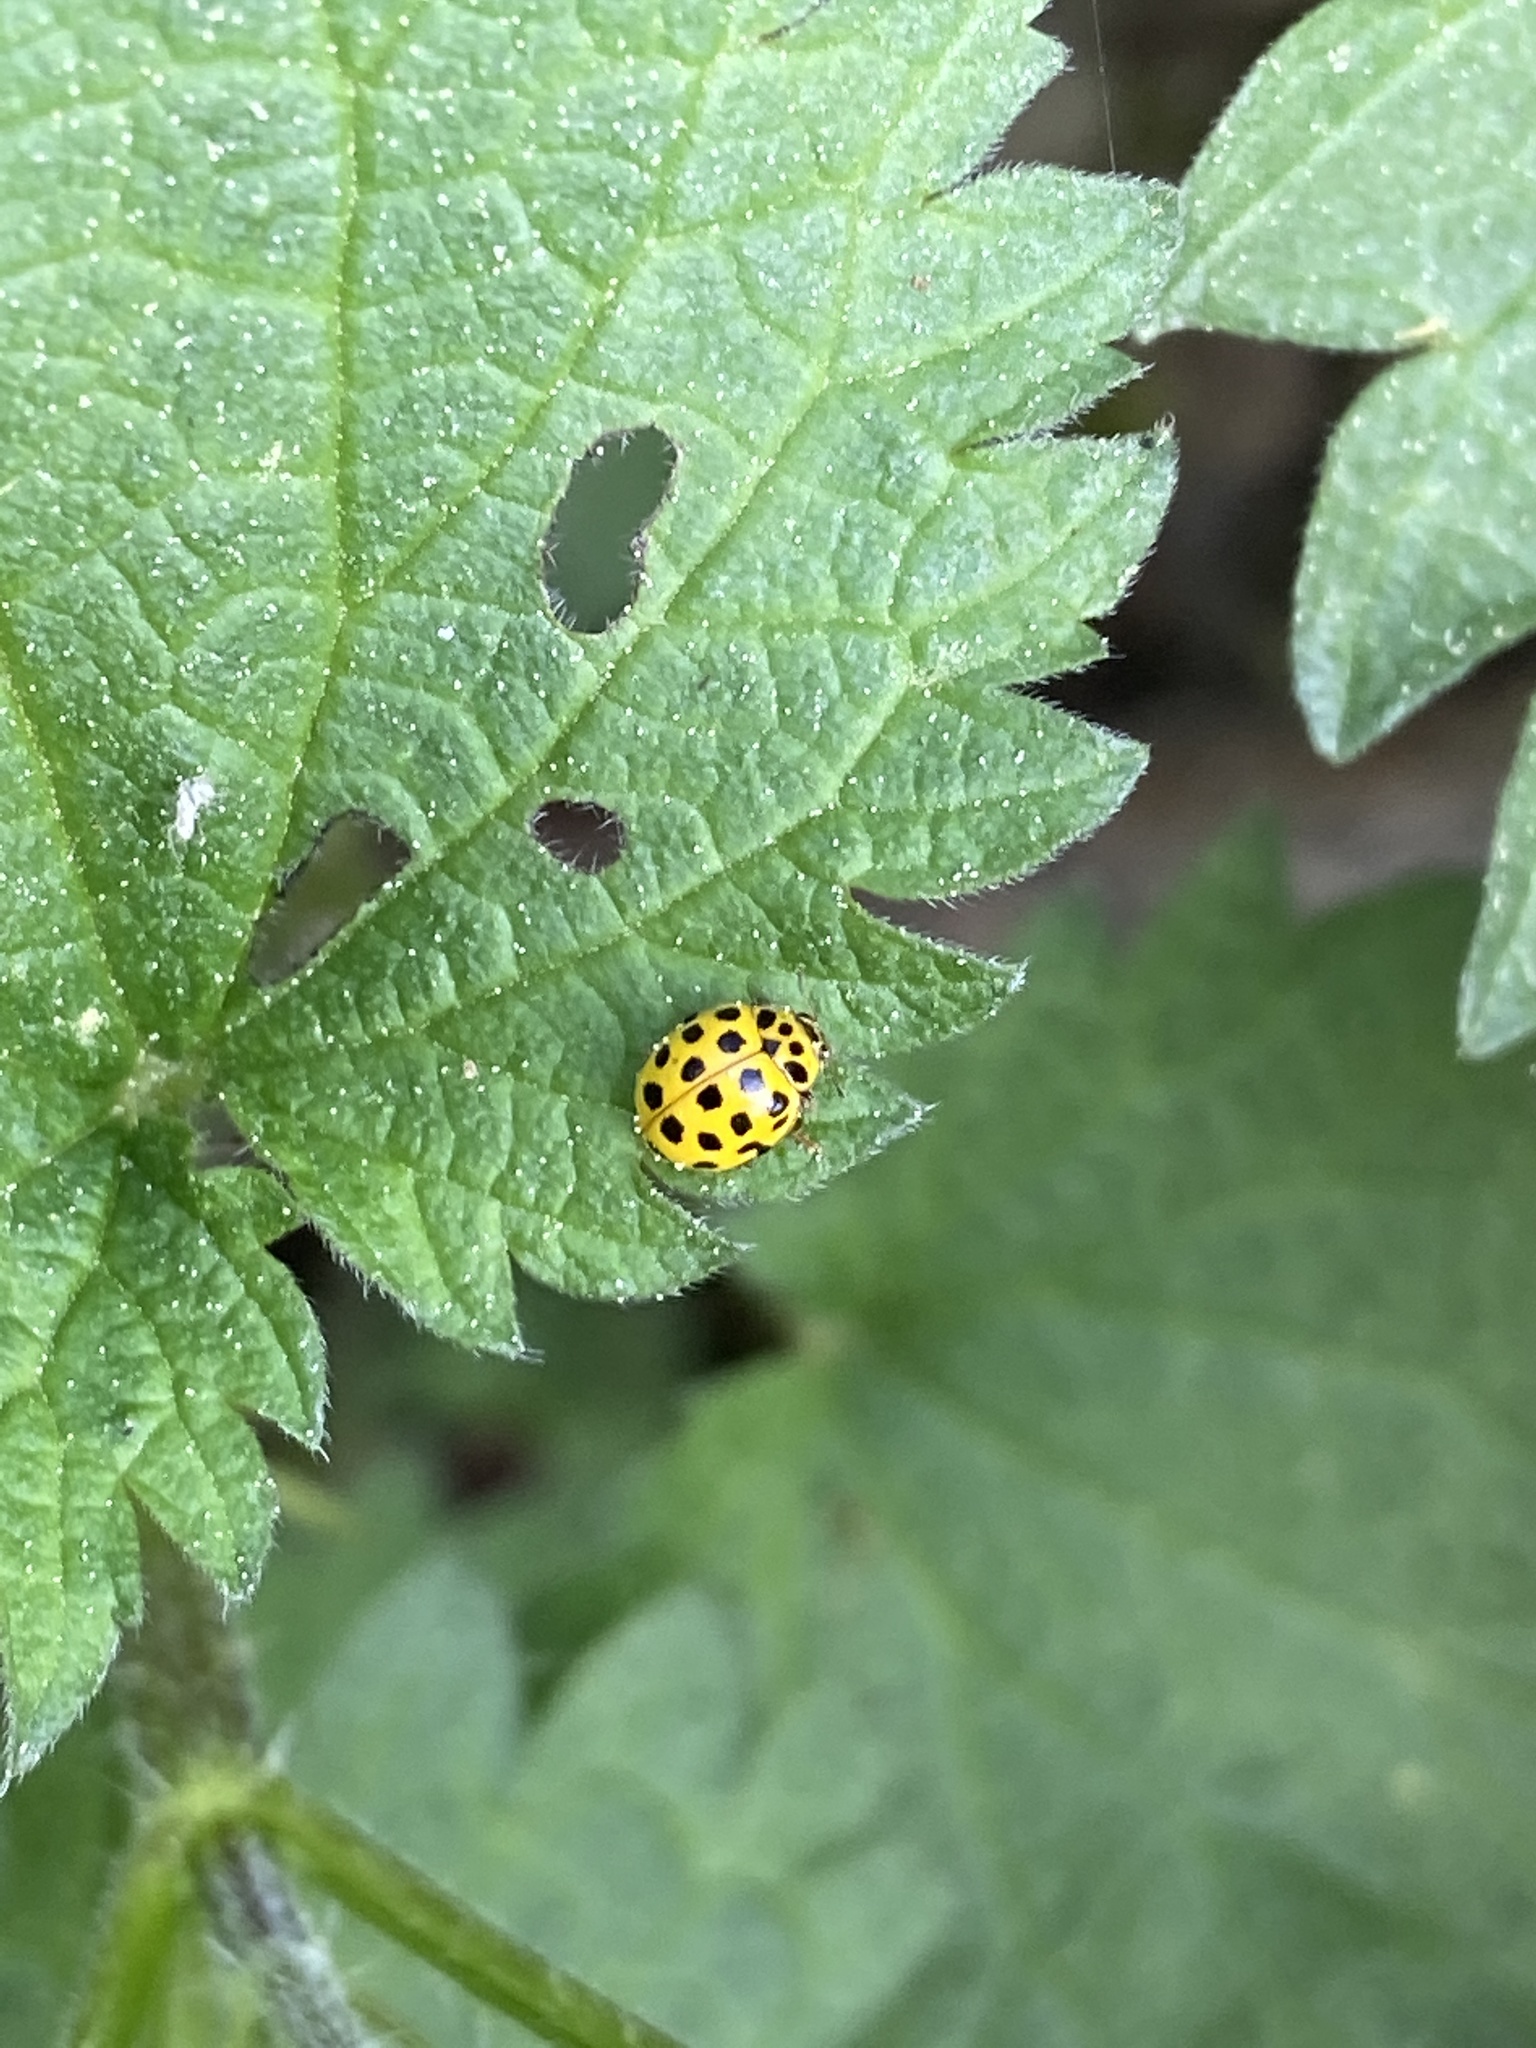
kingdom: Animalia
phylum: Arthropoda
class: Insecta
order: Coleoptera
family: Coccinellidae
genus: Psyllobora
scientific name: Psyllobora vigintiduopunctata
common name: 22-spot ladybird
